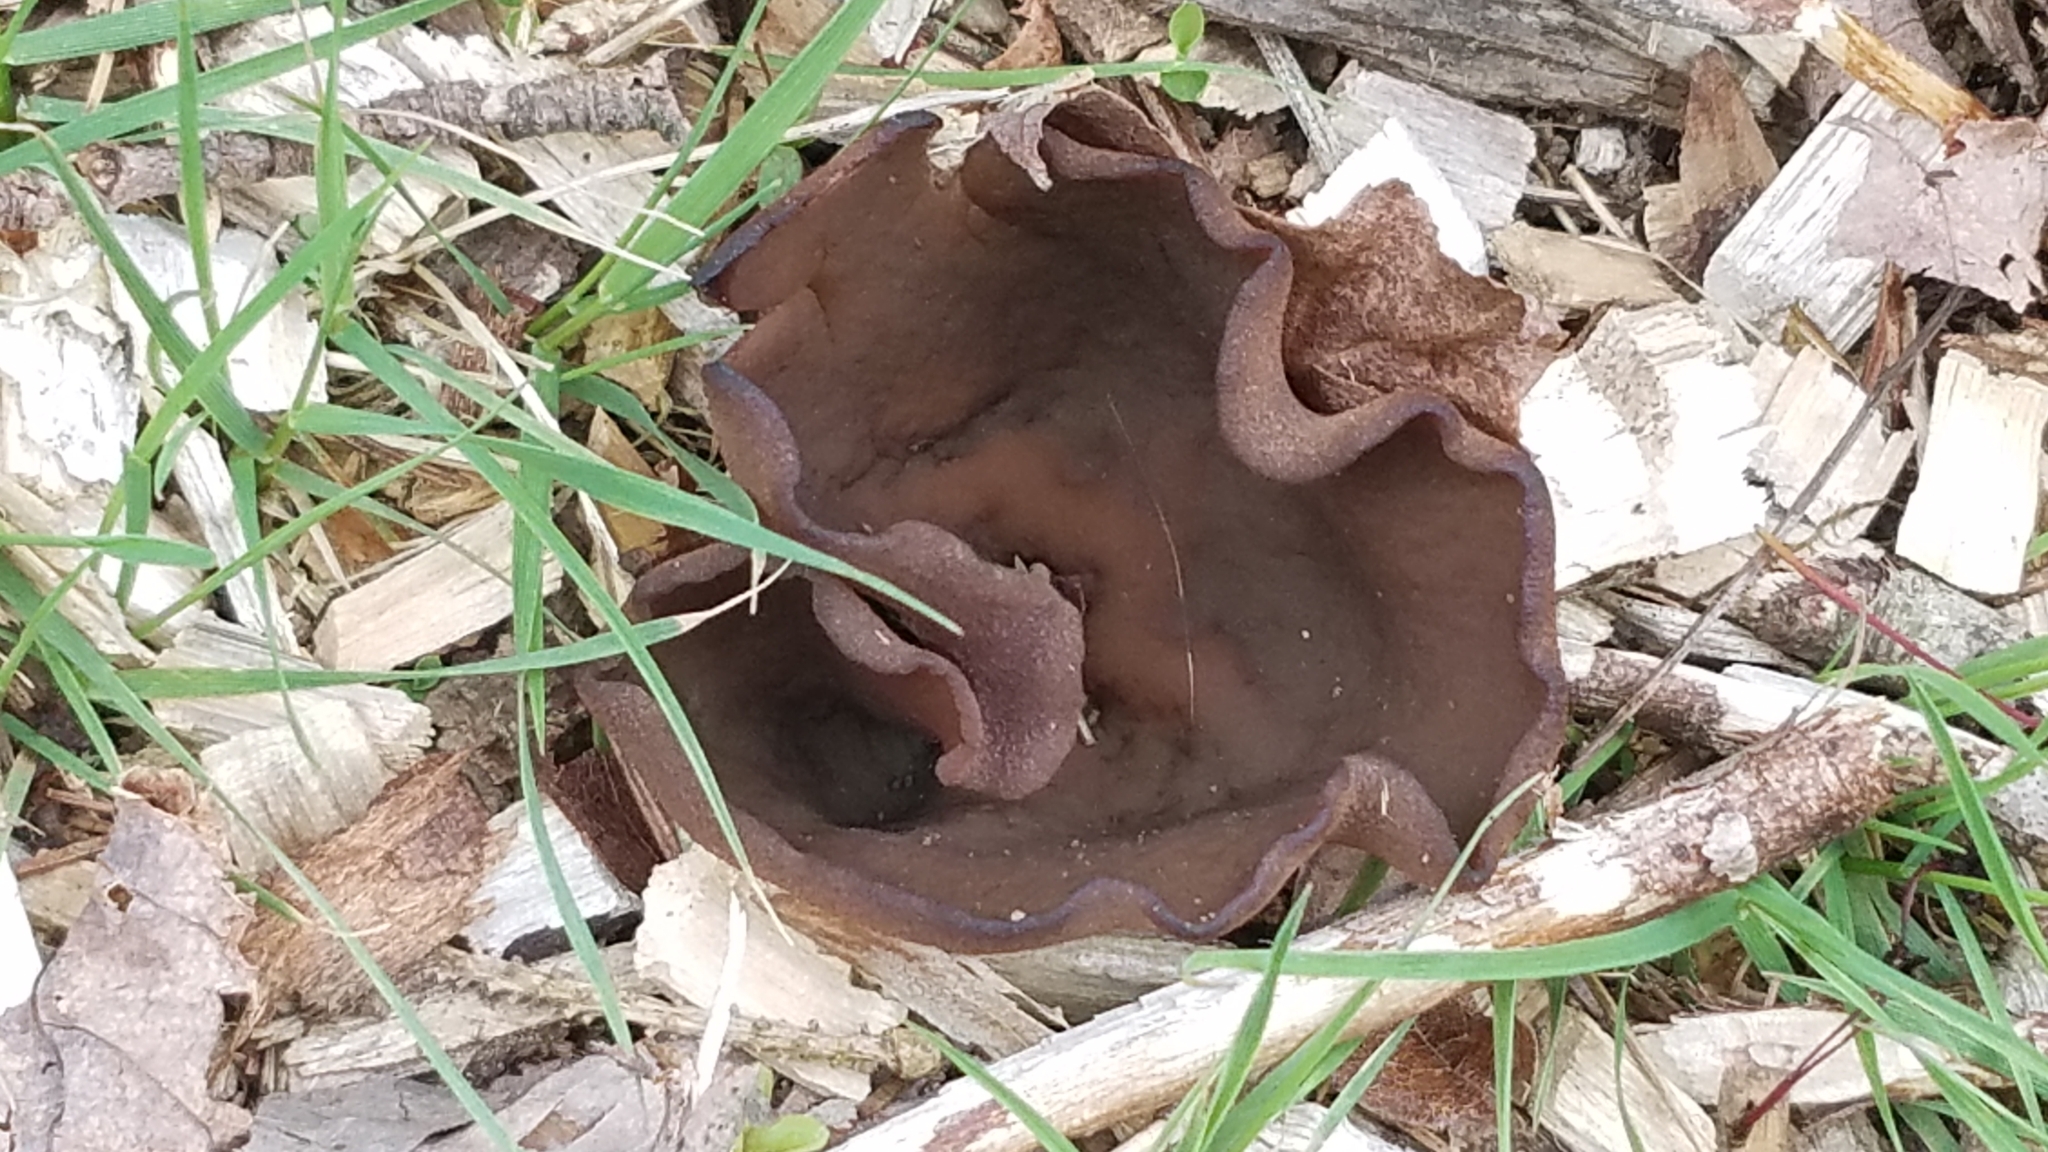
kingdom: Fungi
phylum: Ascomycota
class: Pezizomycetes
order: Pezizales
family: Pezizaceae
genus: Phylloscypha
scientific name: Phylloscypha phyllogena
